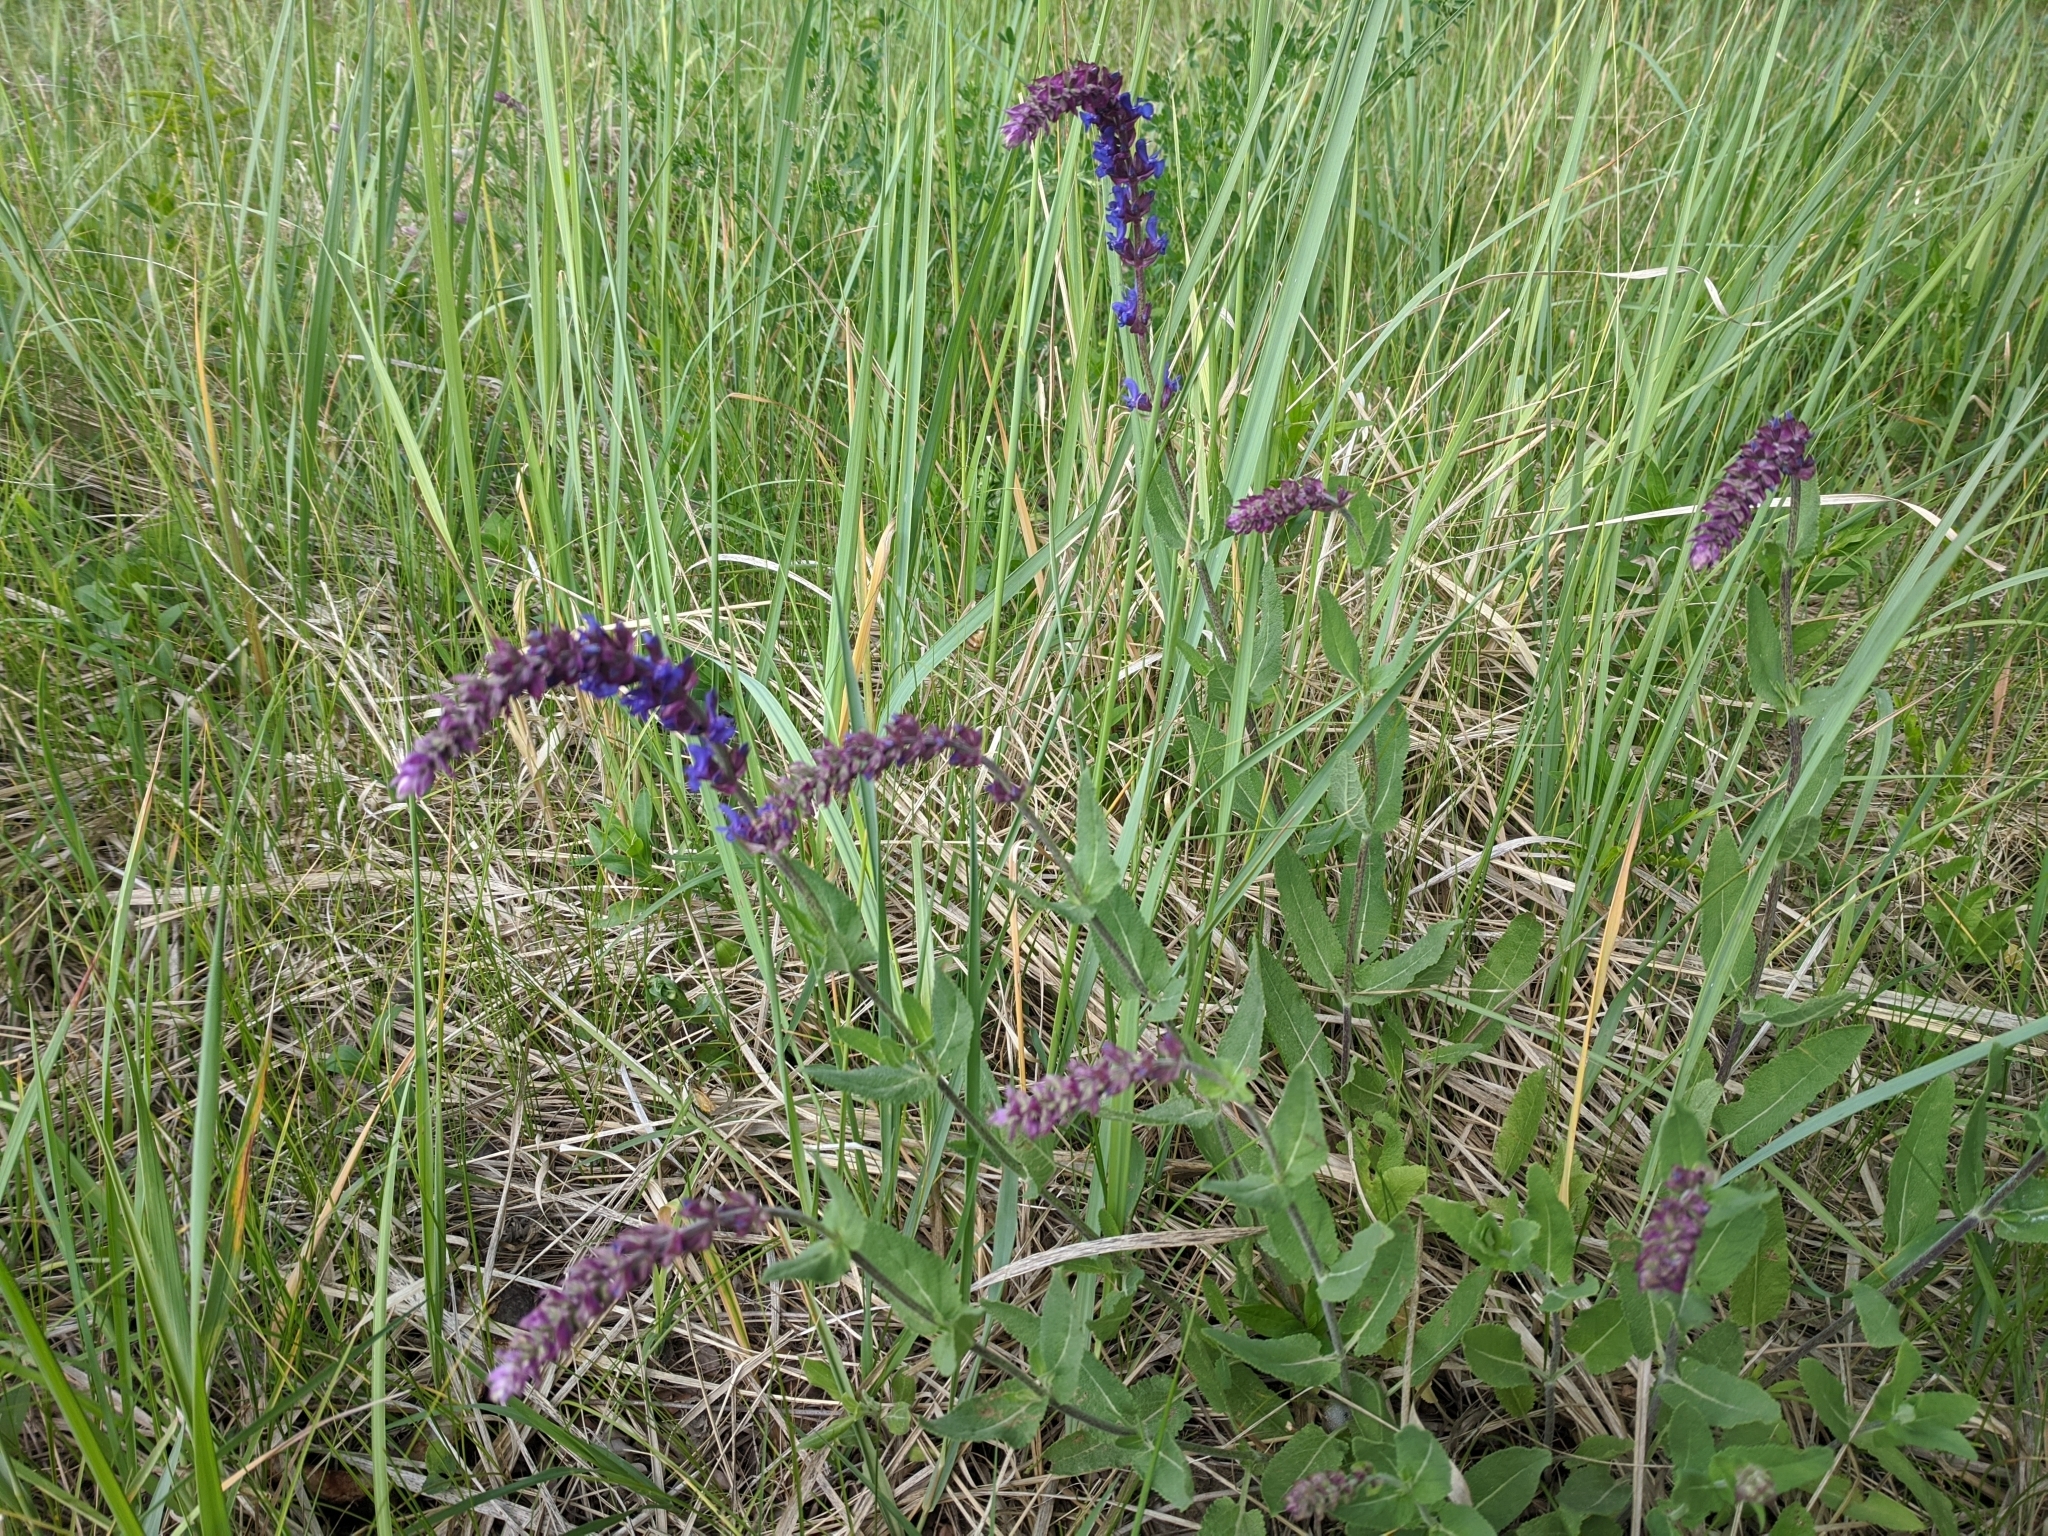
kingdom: Plantae
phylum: Tracheophyta
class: Magnoliopsida
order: Lamiales
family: Lamiaceae
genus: Salvia
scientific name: Salvia nemorosa
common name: Balkan clary
